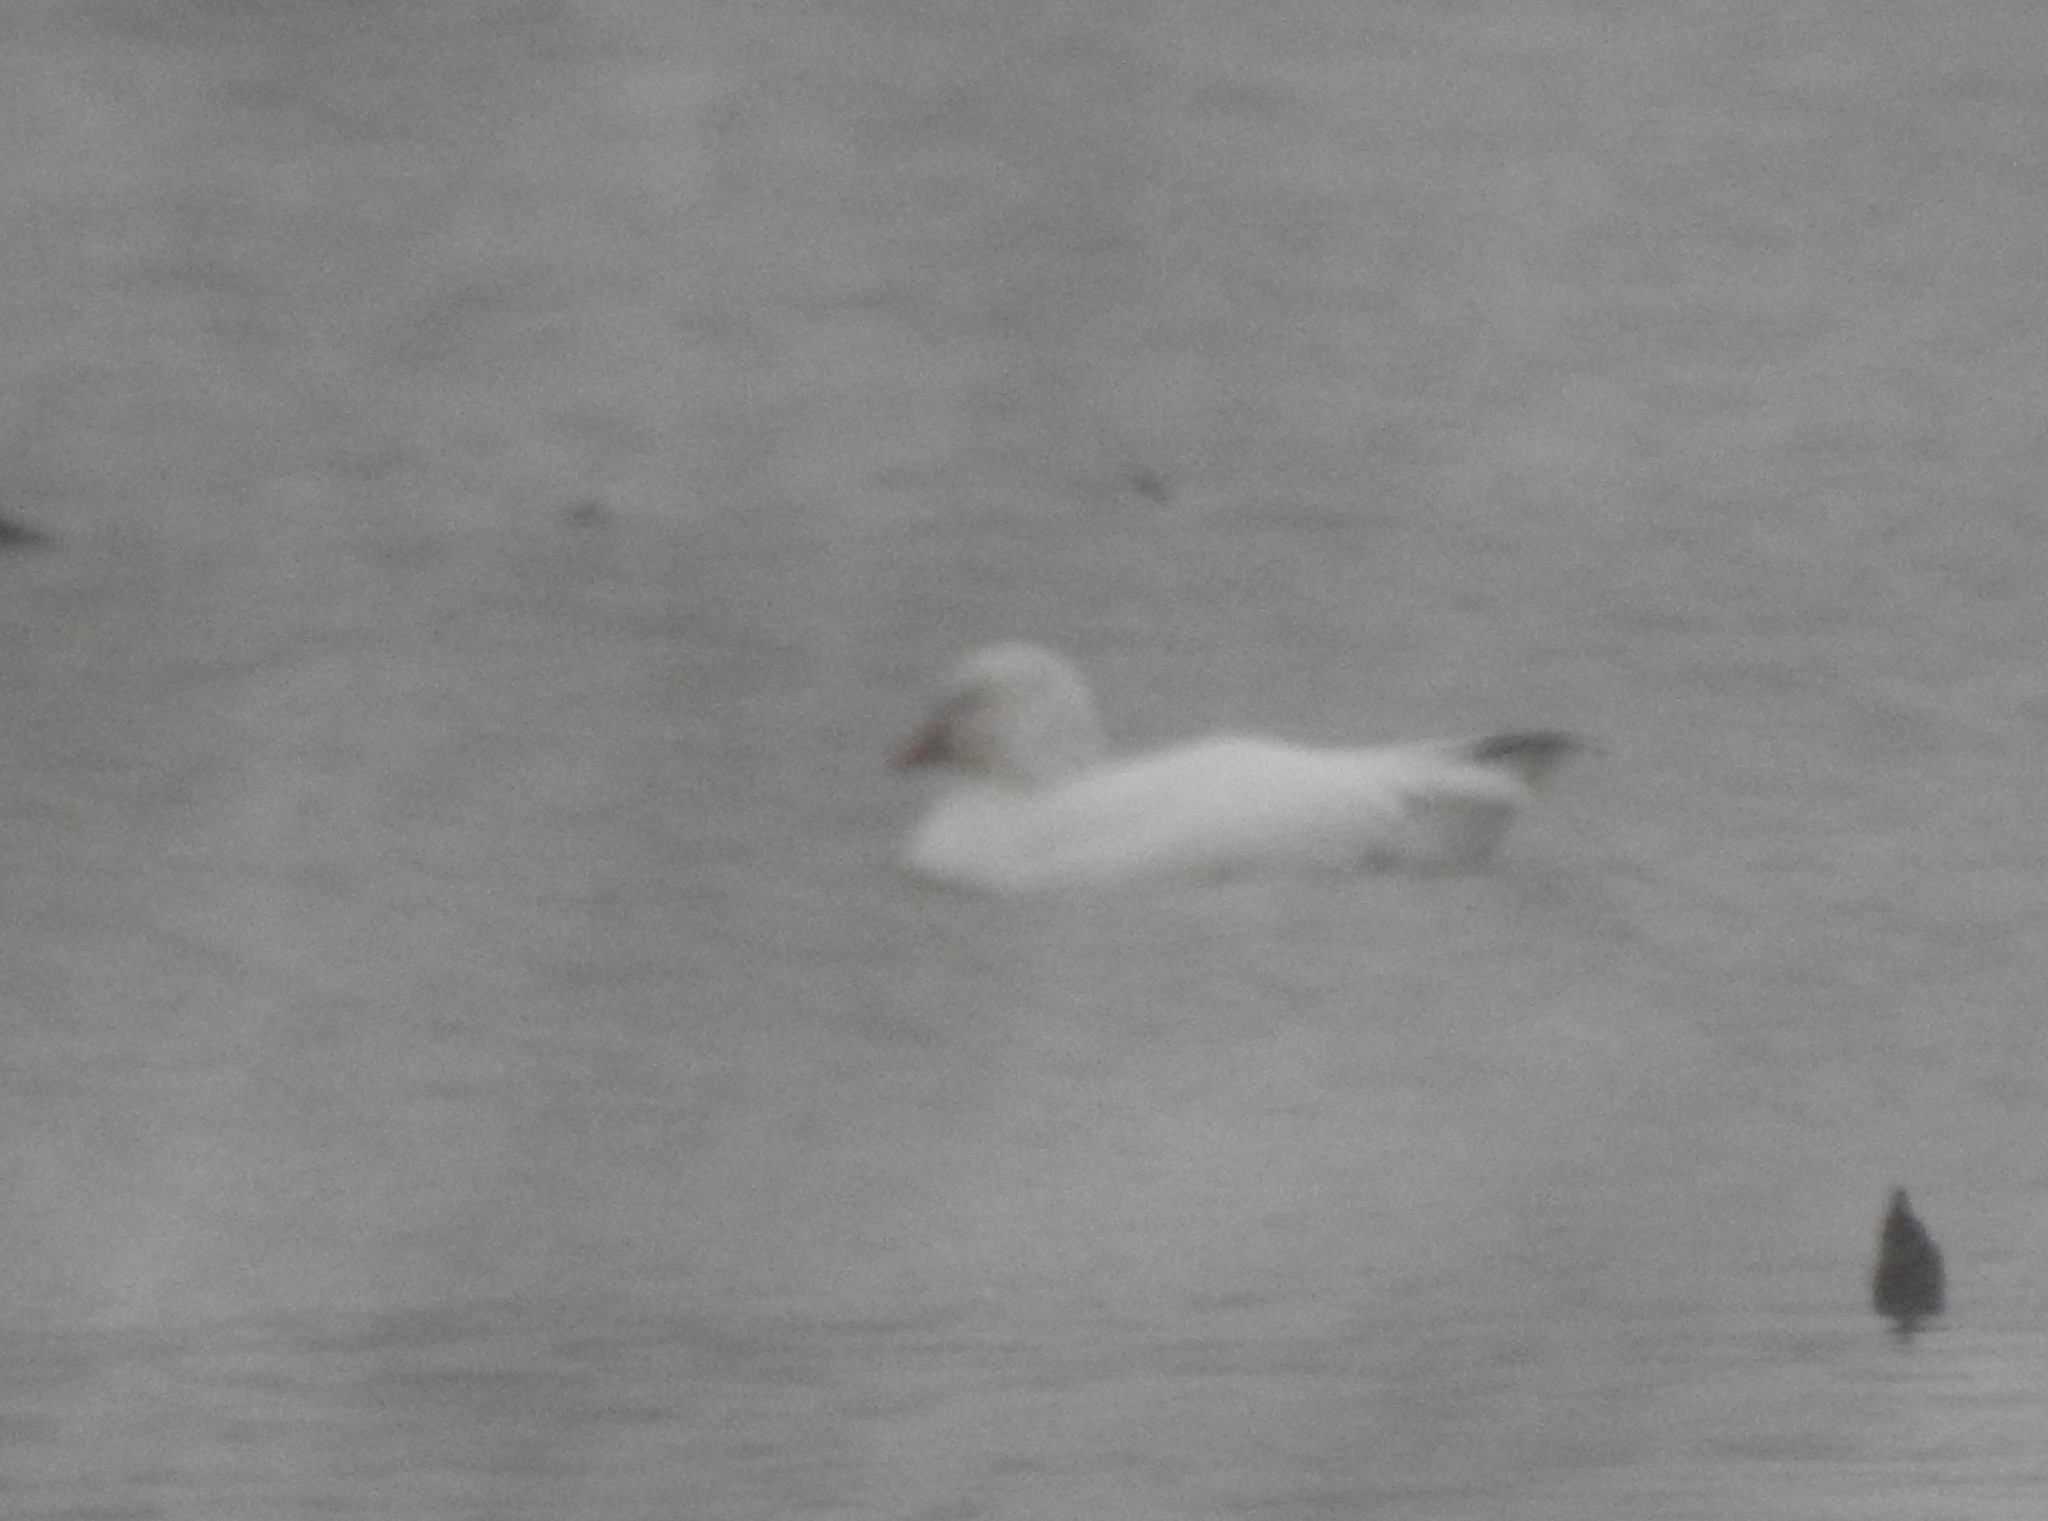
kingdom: Animalia
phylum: Chordata
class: Aves
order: Anseriformes
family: Anatidae
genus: Anser
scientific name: Anser rossii
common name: Ross's goose
